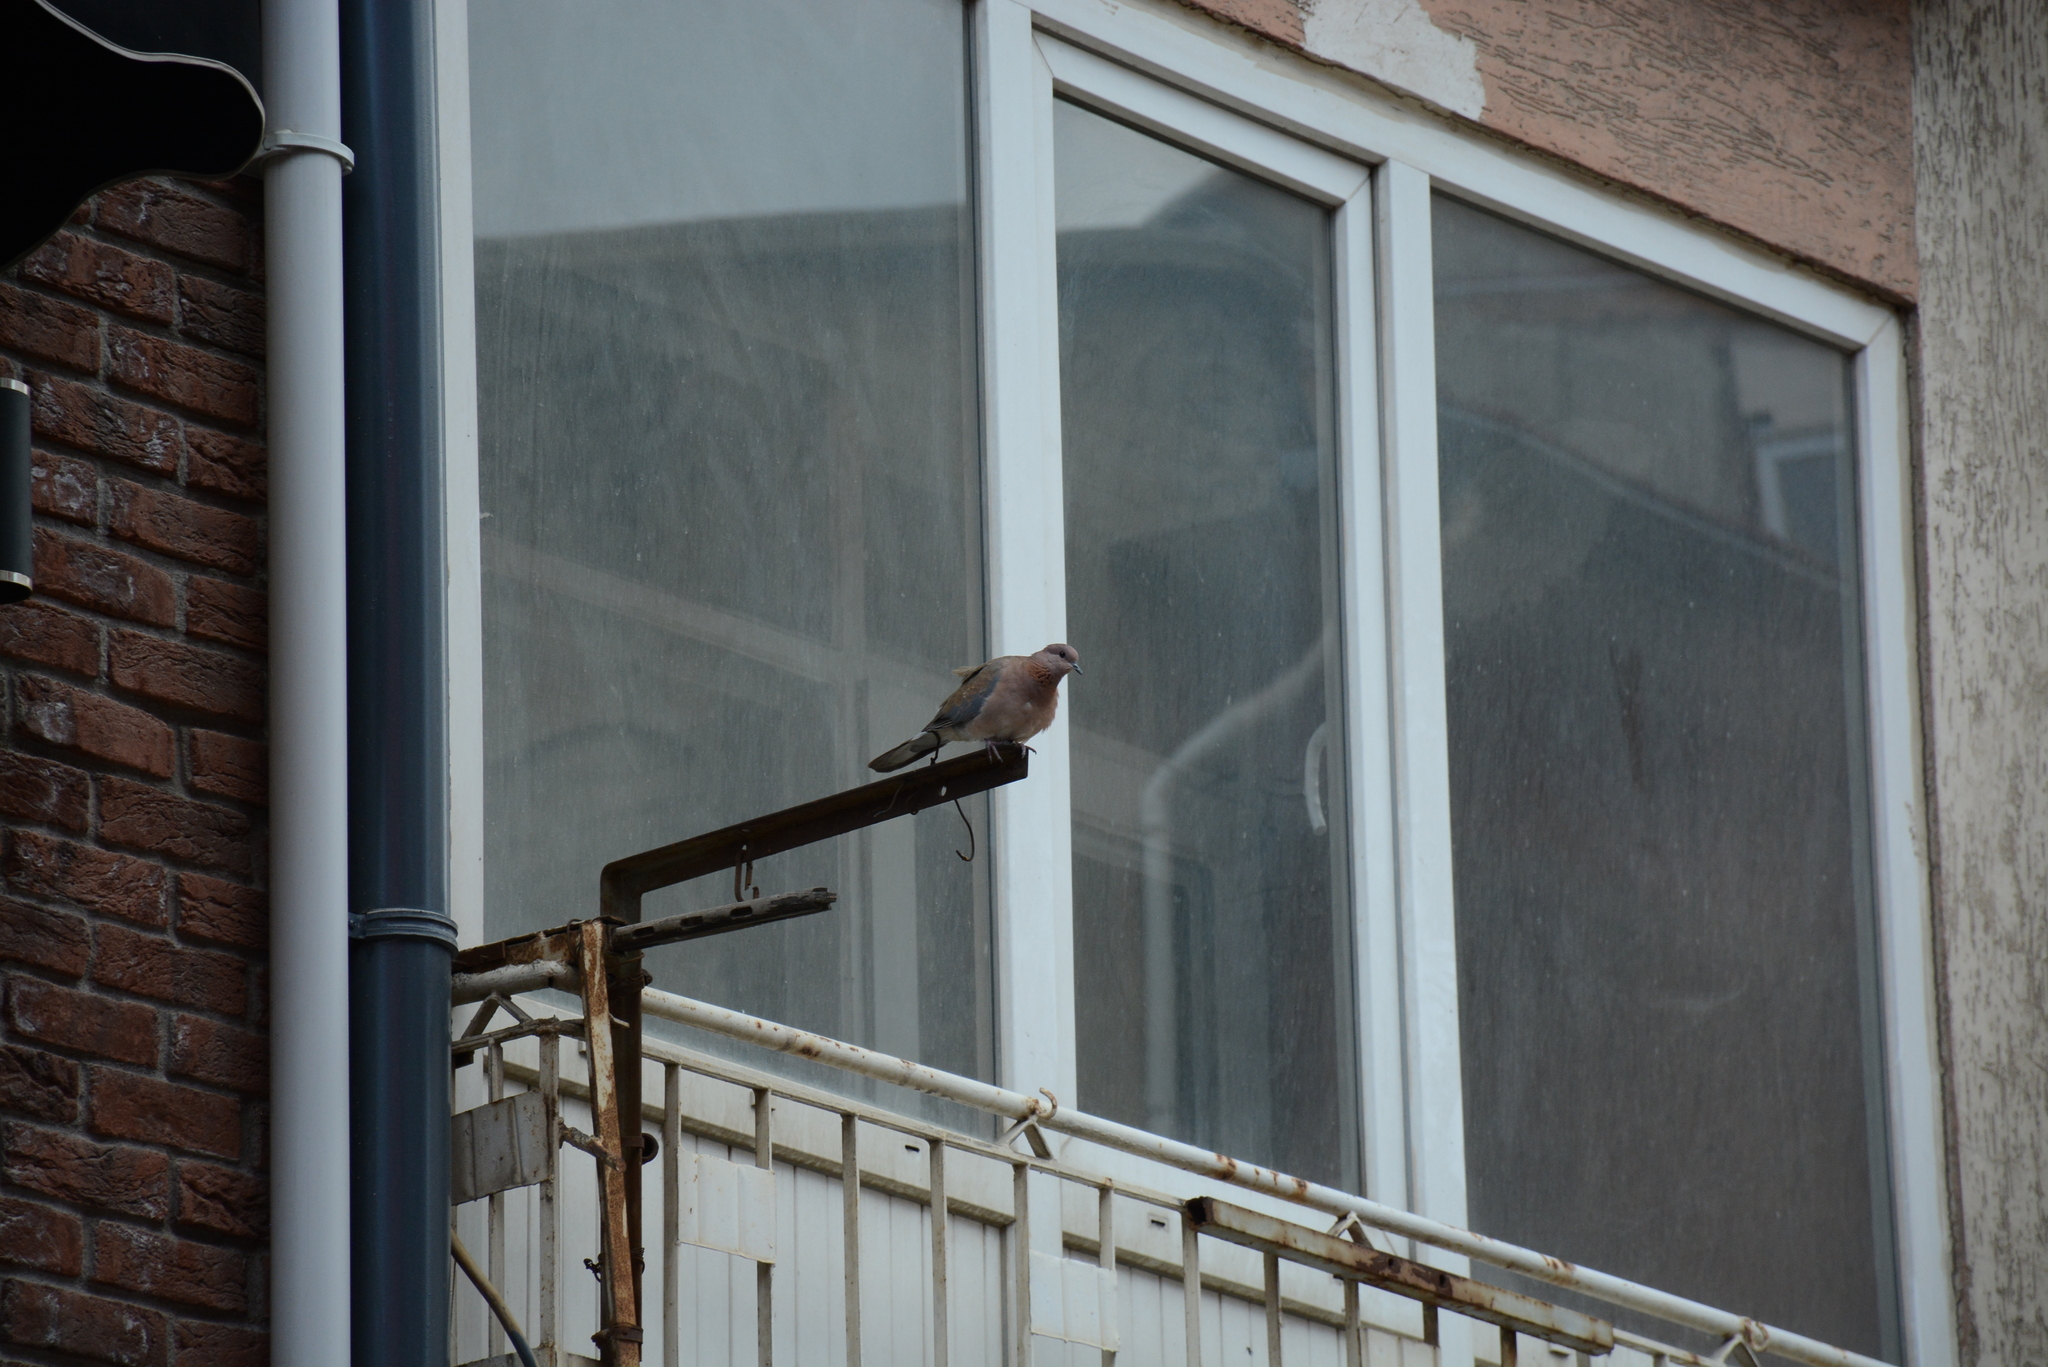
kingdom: Animalia
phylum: Chordata
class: Aves
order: Columbiformes
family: Columbidae
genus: Spilopelia
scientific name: Spilopelia senegalensis
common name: Laughing dove
